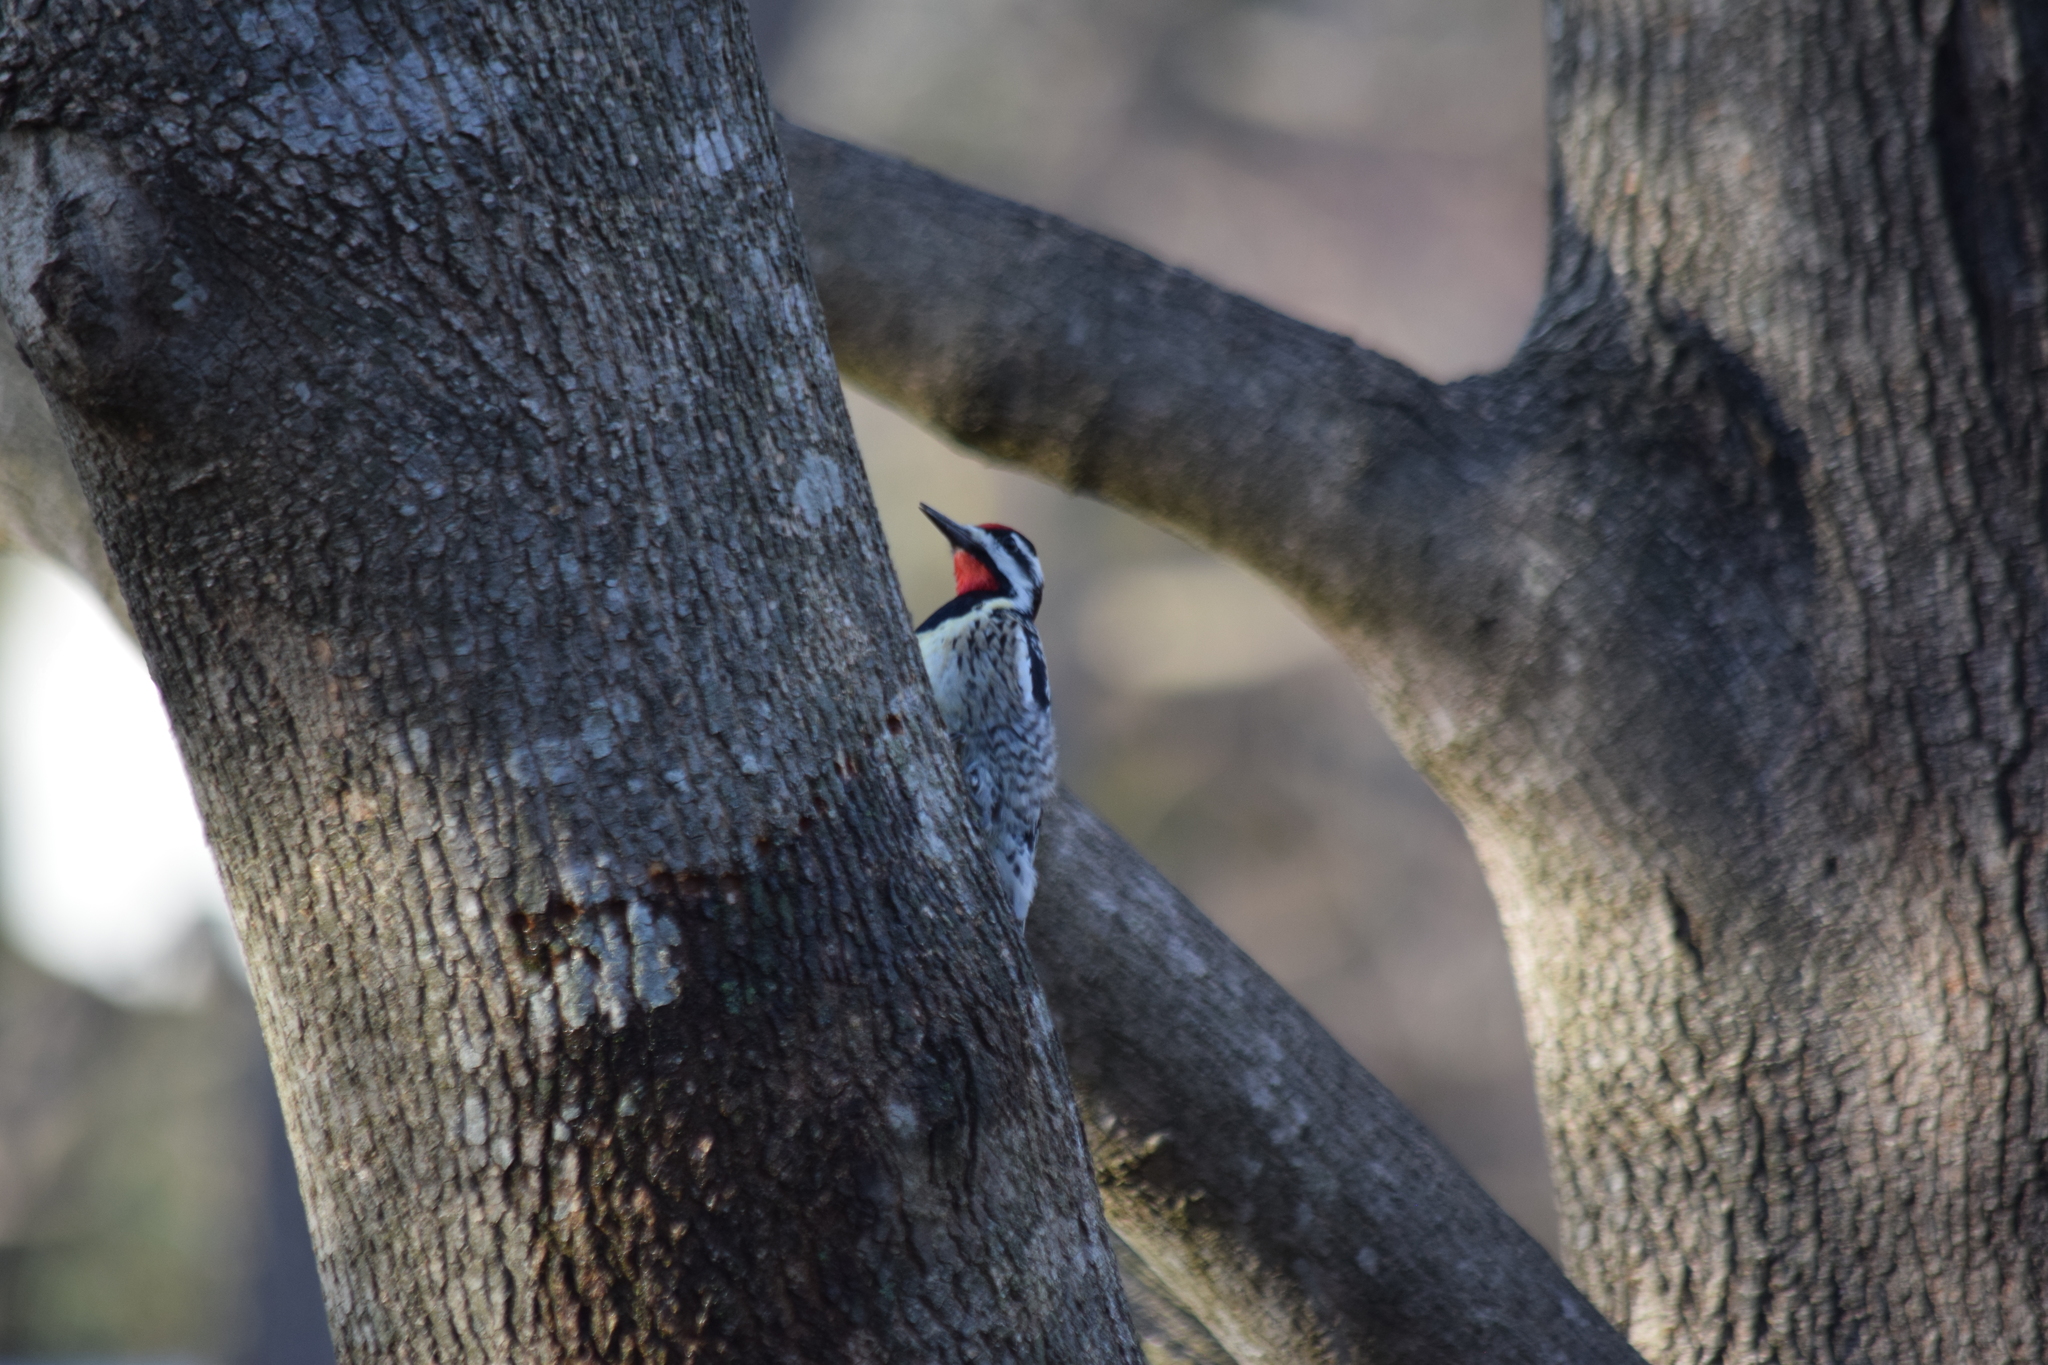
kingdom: Animalia
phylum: Chordata
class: Aves
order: Piciformes
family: Picidae
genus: Sphyrapicus
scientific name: Sphyrapicus varius
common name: Yellow-bellied sapsucker
